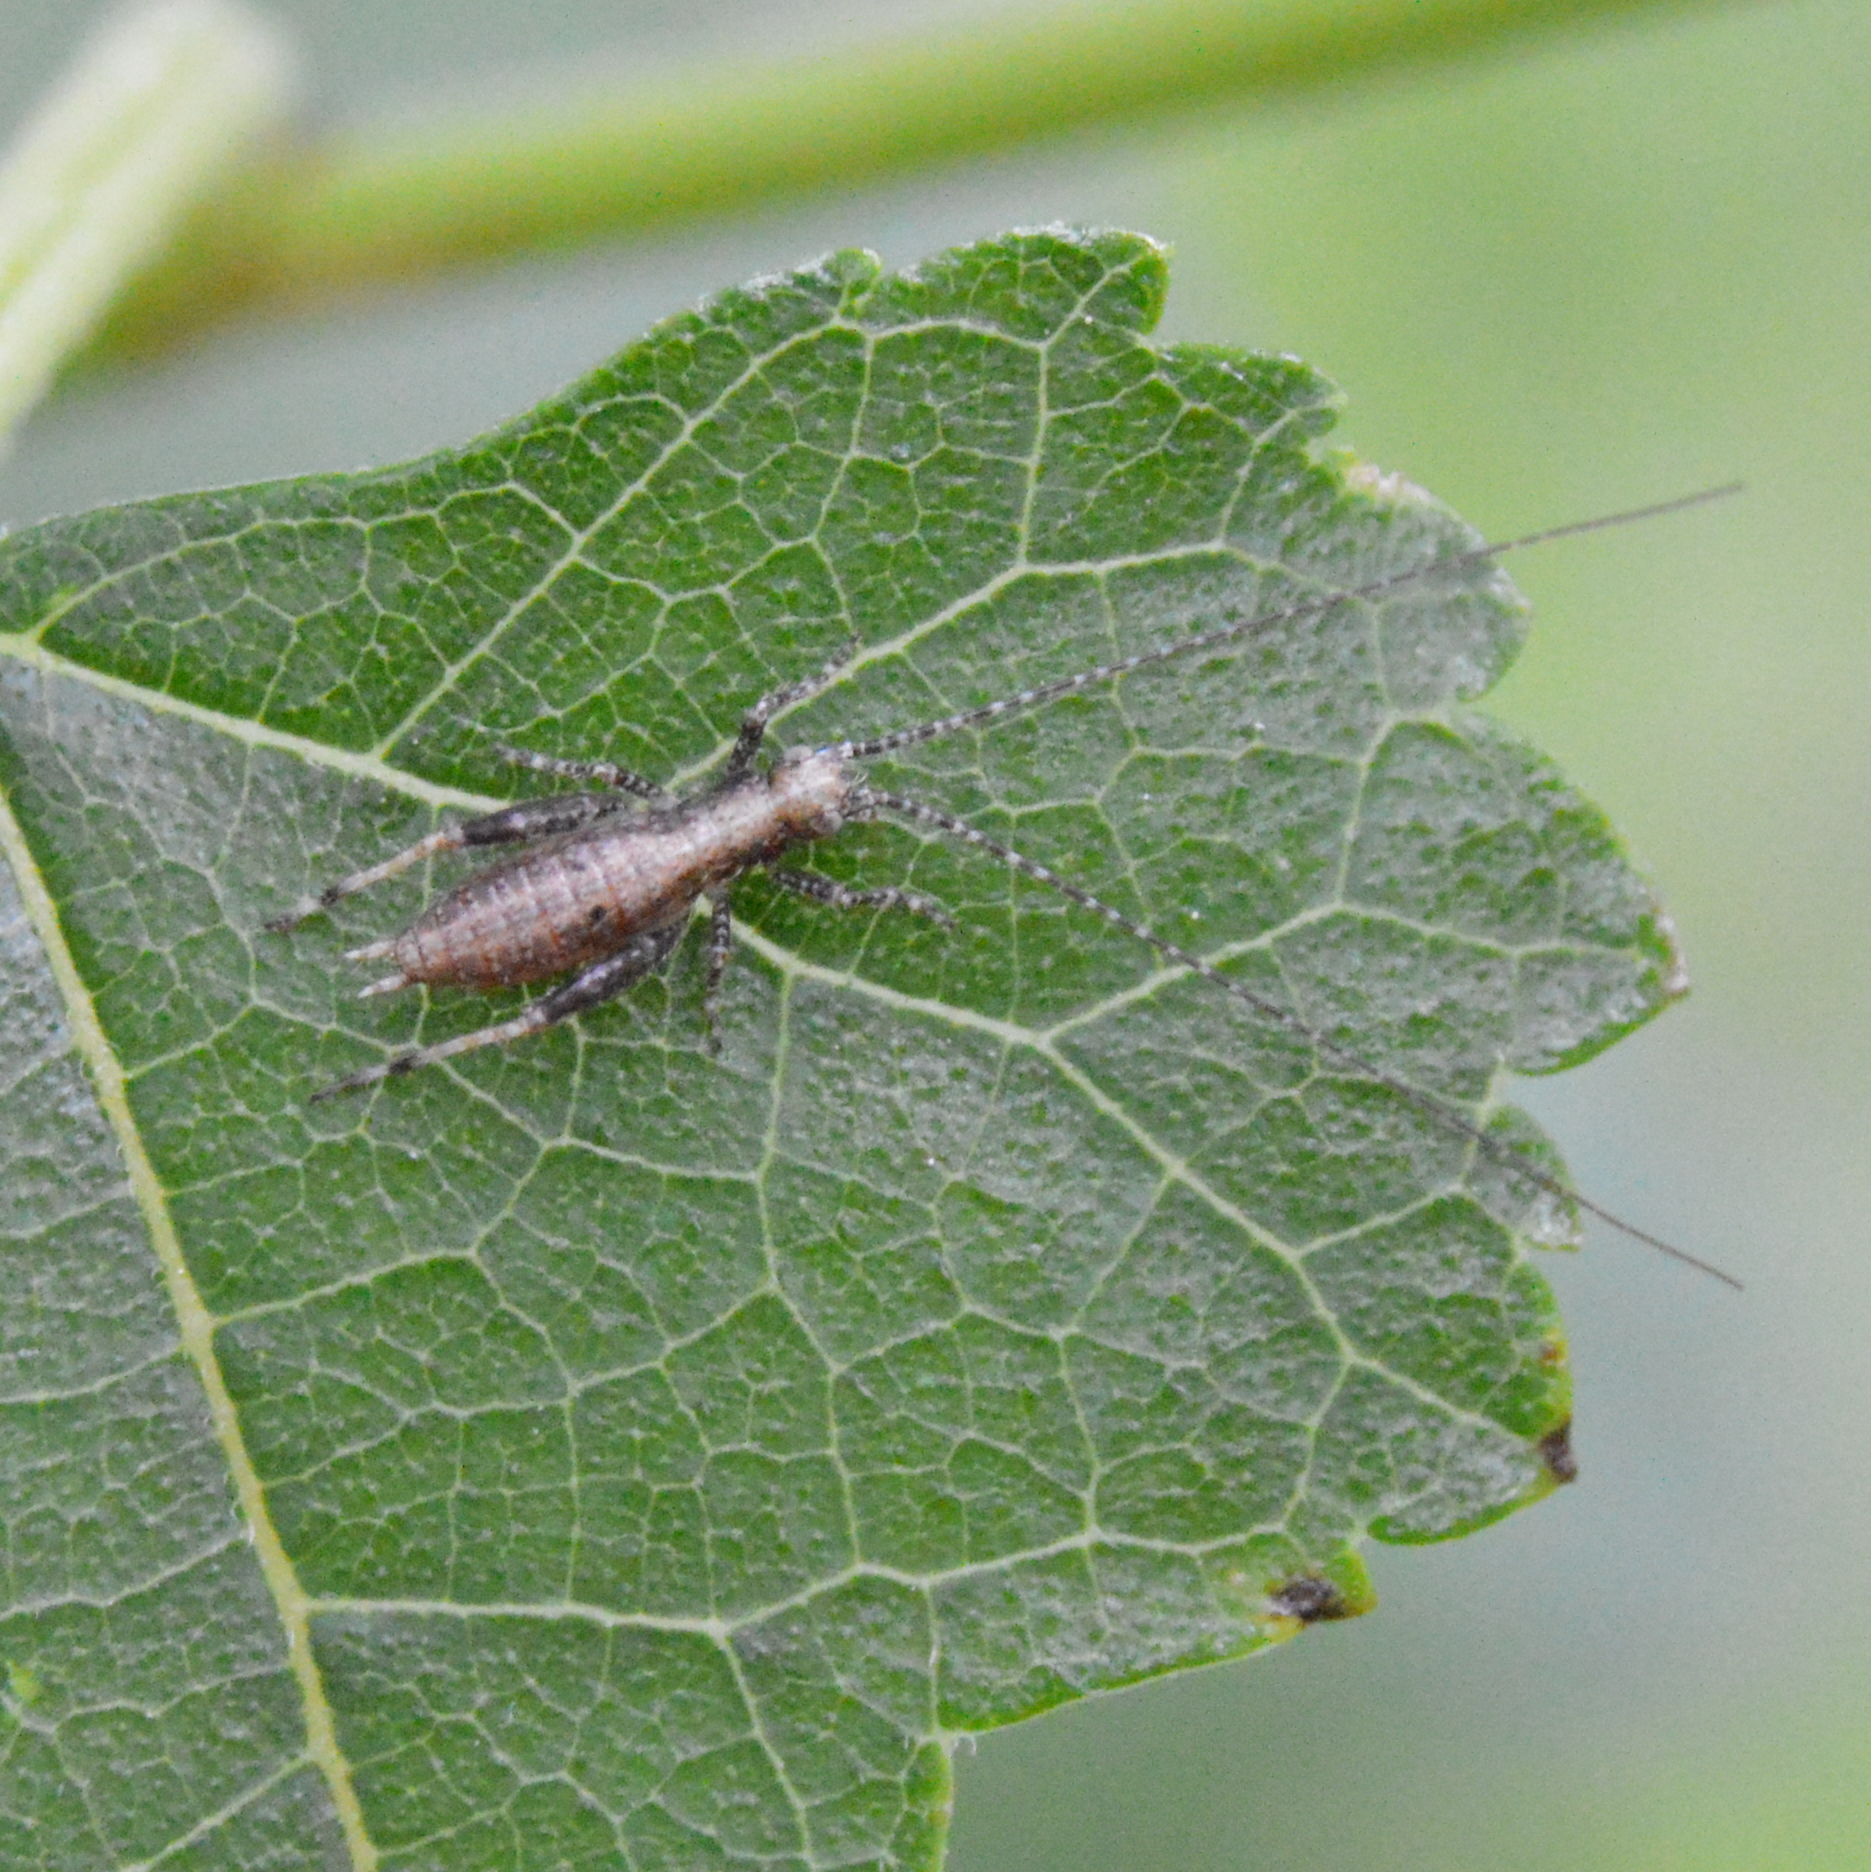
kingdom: Animalia
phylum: Arthropoda
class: Insecta
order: Orthoptera
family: Gryllidae
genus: Hapithus
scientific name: Hapithus saltator
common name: Jumping bush cricket
